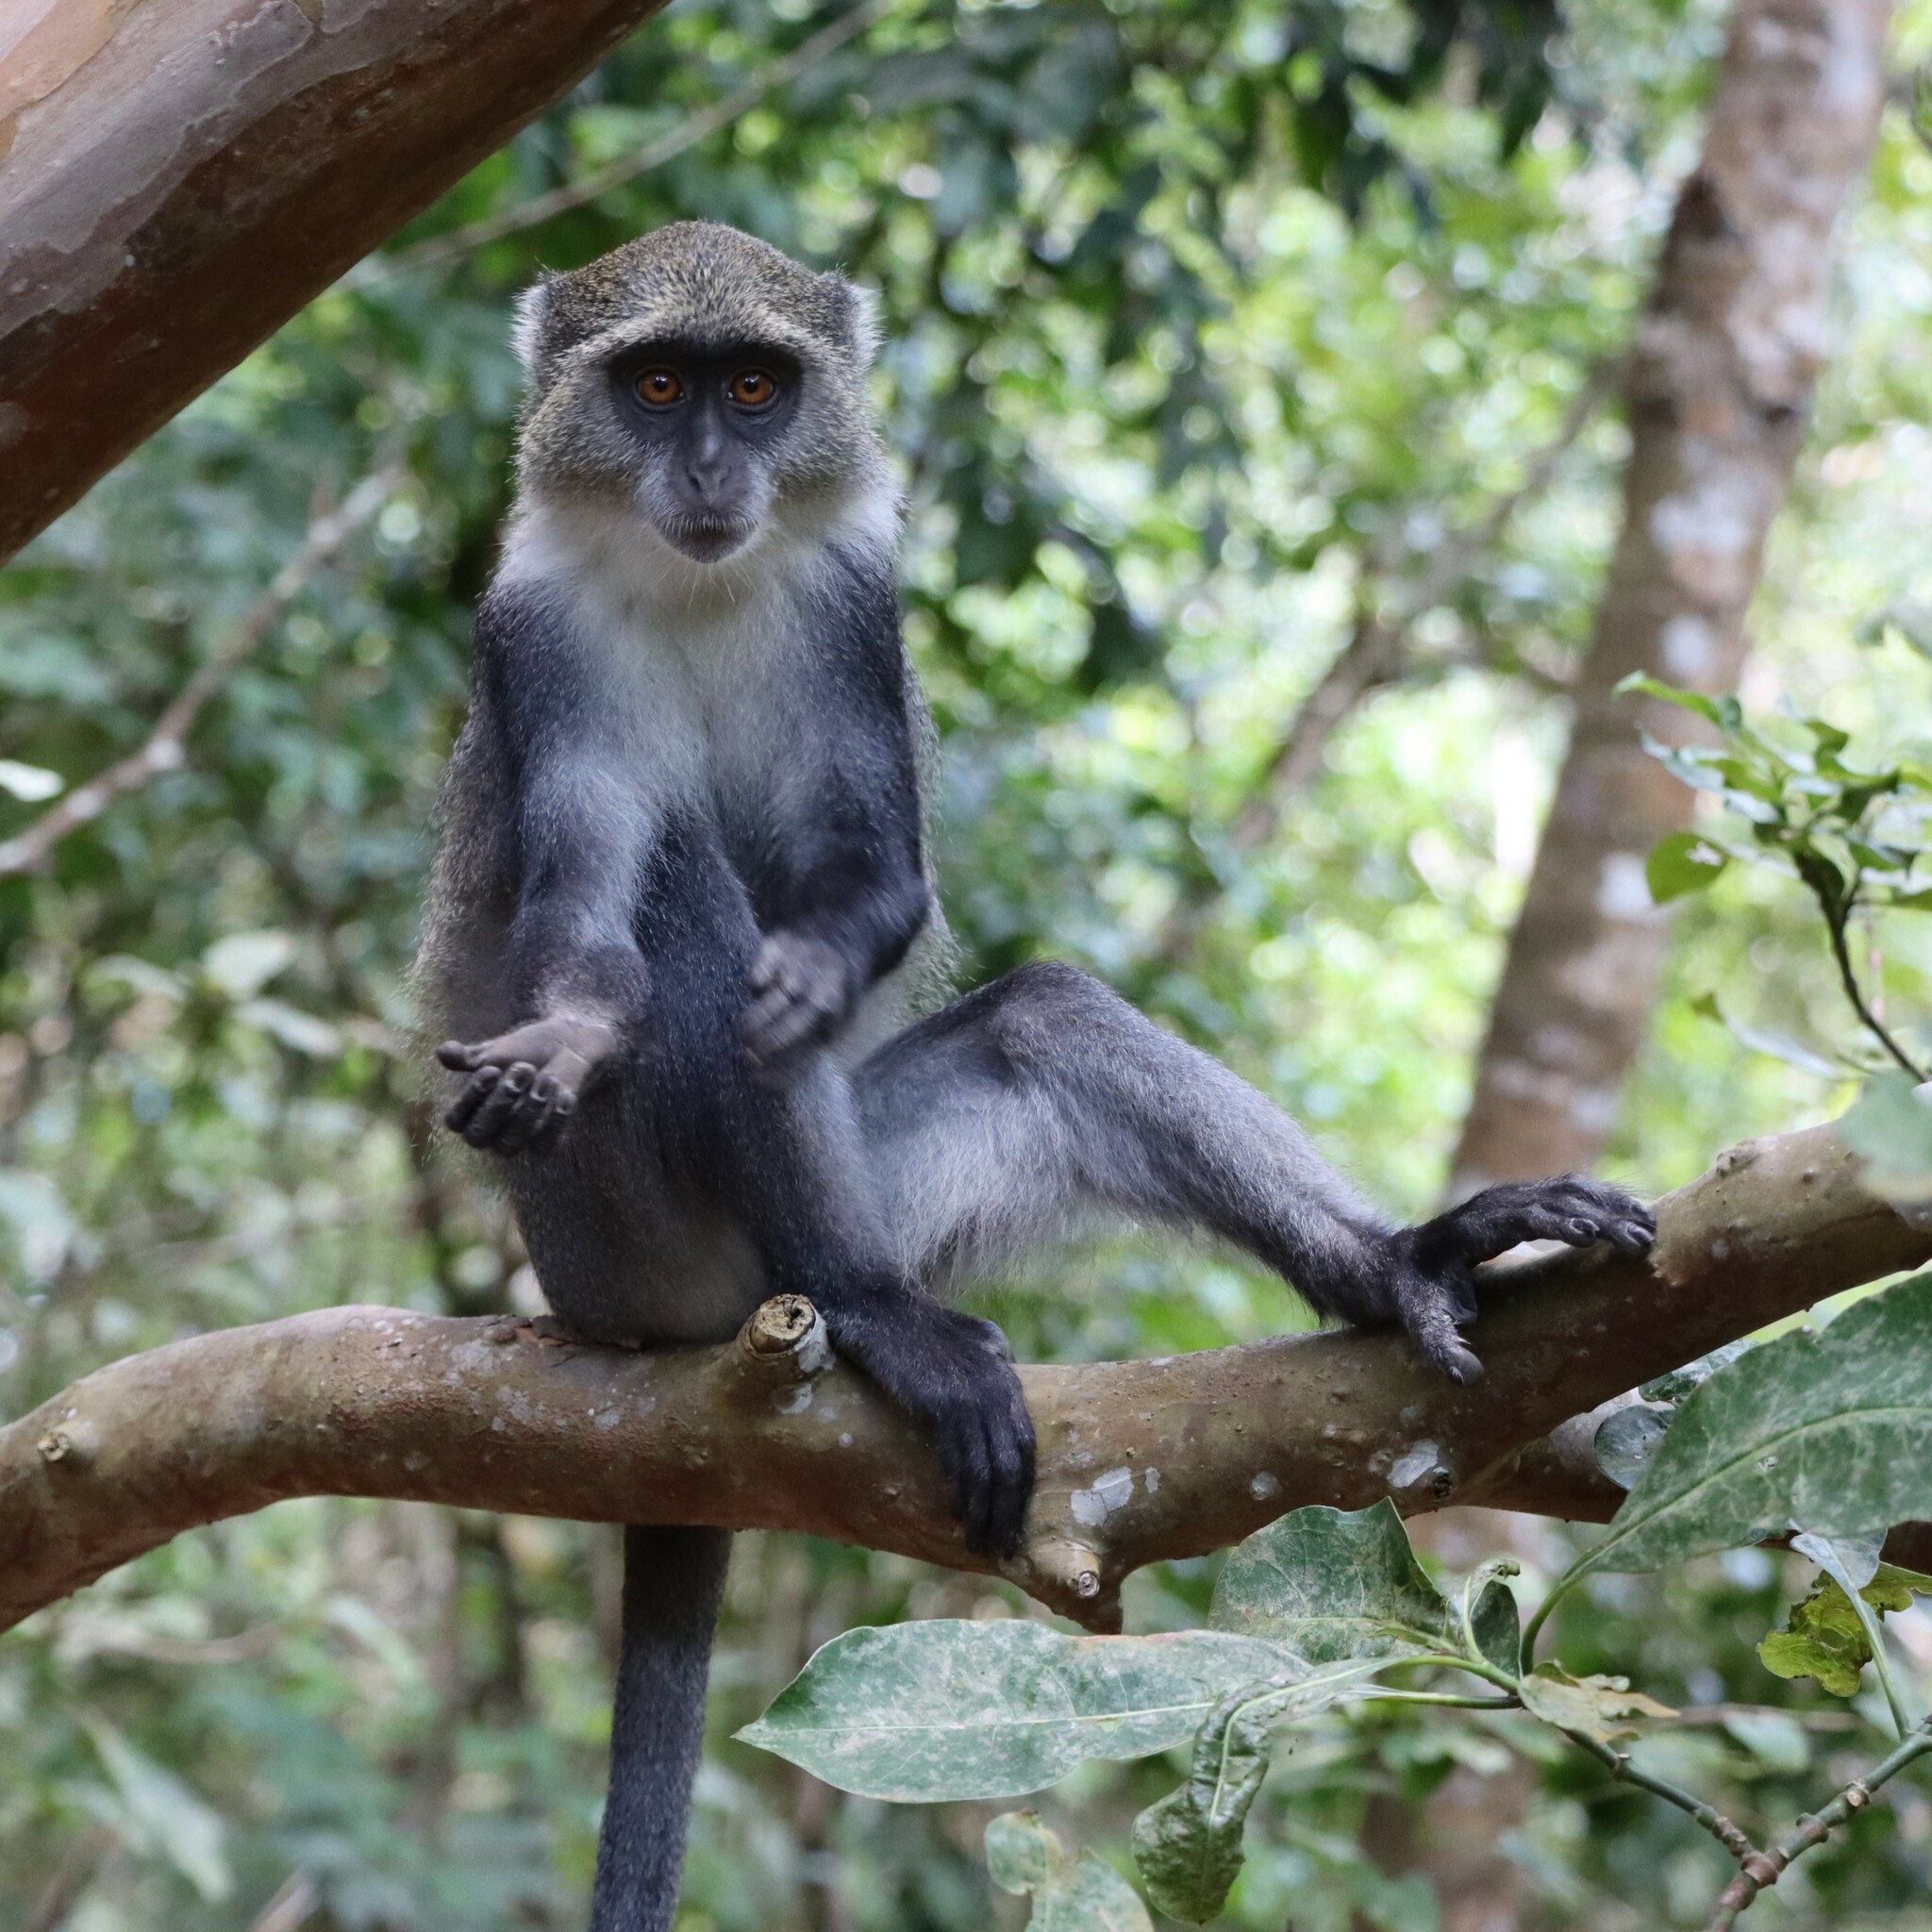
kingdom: Animalia
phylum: Chordata
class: Mammalia
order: Primates
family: Cercopithecidae
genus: Cercopithecus
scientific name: Cercopithecus mitis
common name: Blue monkey
